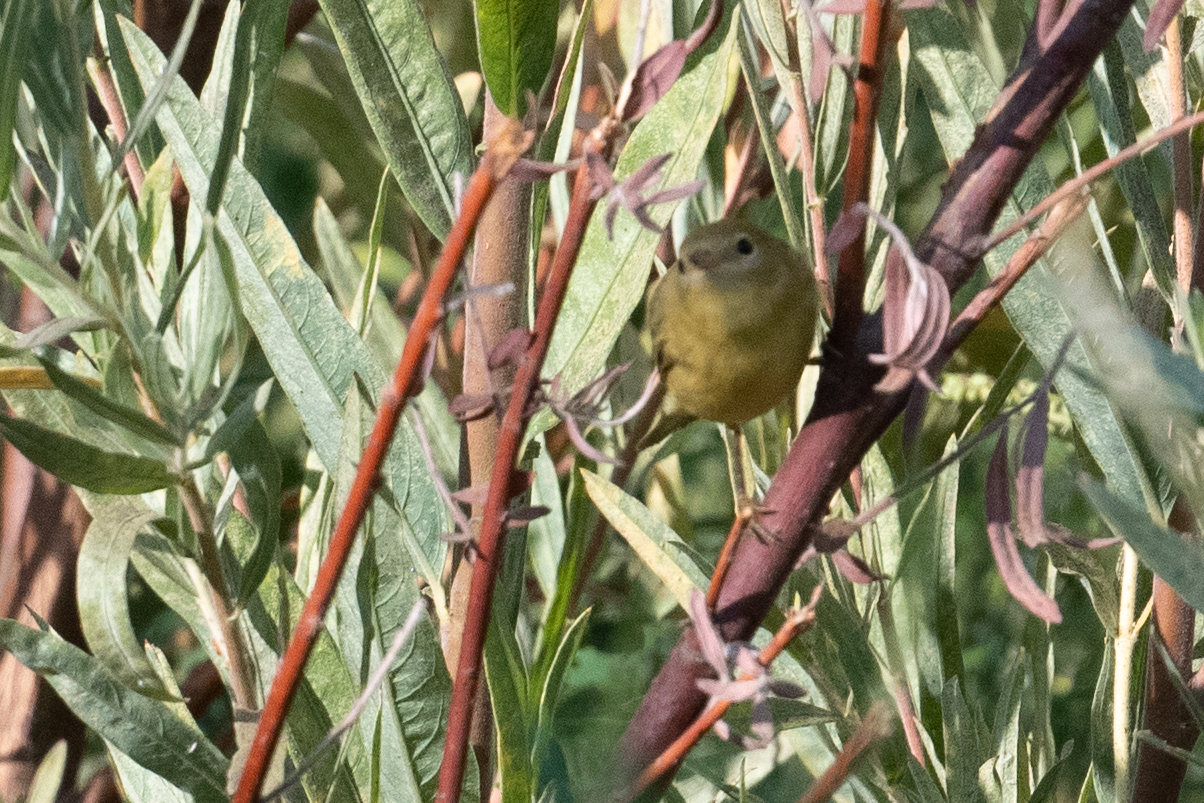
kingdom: Animalia
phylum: Chordata
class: Aves
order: Passeriformes
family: Parulidae
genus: Setophaga
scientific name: Setophaga petechia
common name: Yellow warbler
